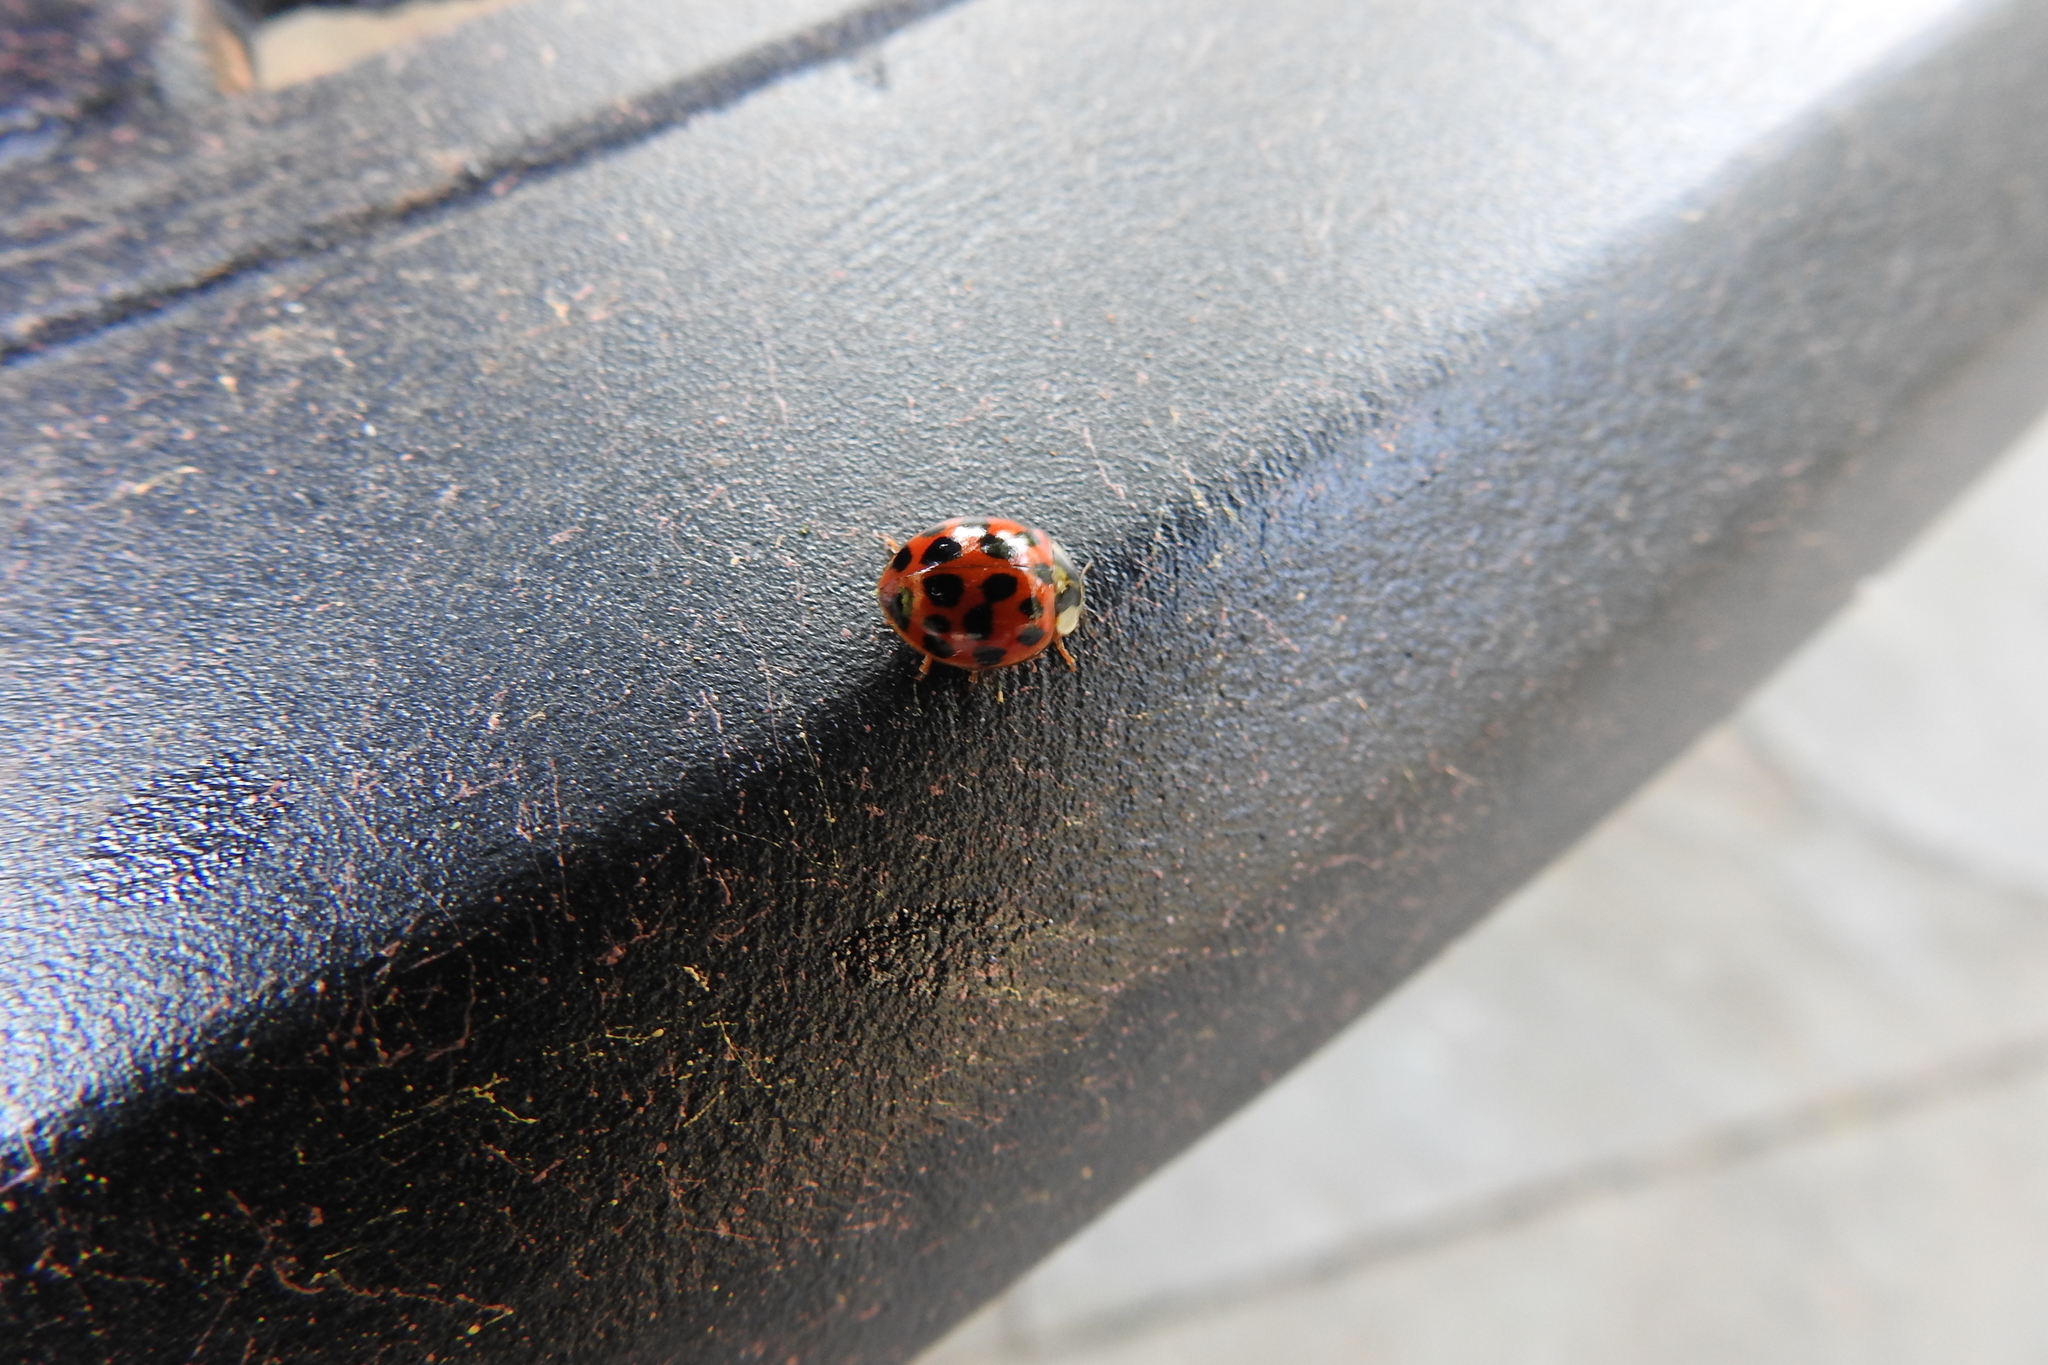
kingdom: Animalia
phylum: Arthropoda
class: Insecta
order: Coleoptera
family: Coccinellidae
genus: Harmonia
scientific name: Harmonia axyridis
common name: Harlequin ladybird
